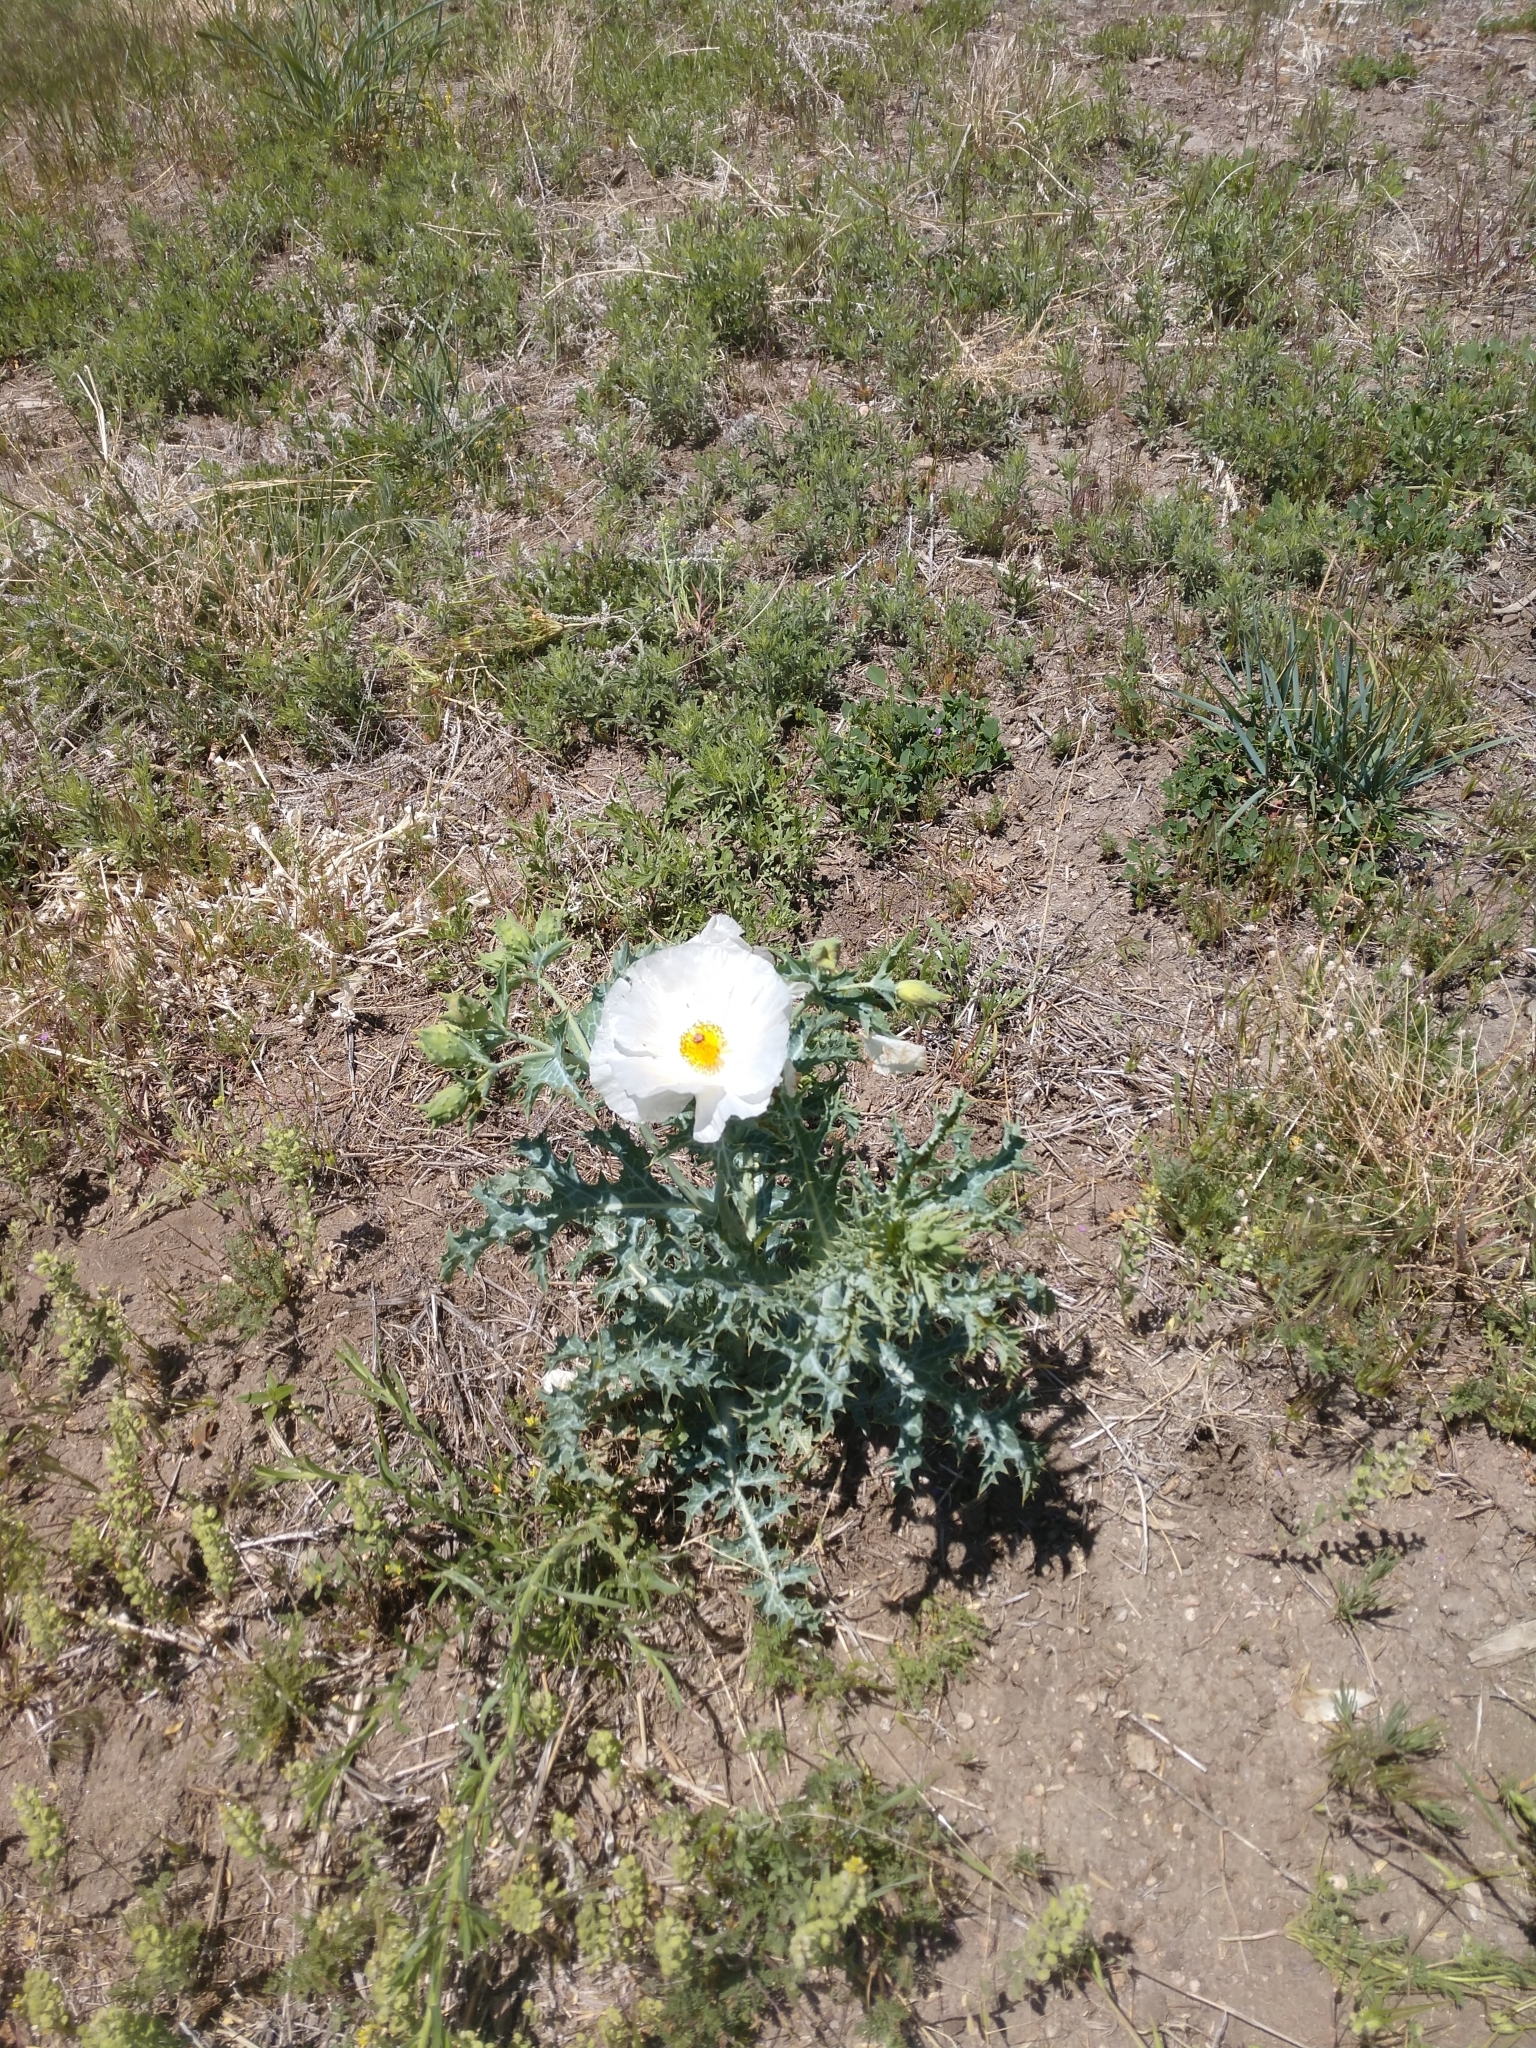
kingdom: Plantae
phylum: Tracheophyta
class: Magnoliopsida
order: Ranunculales
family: Papaveraceae
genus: Argemone
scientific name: Argemone polyanthemos
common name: Plains prickly-poppy
